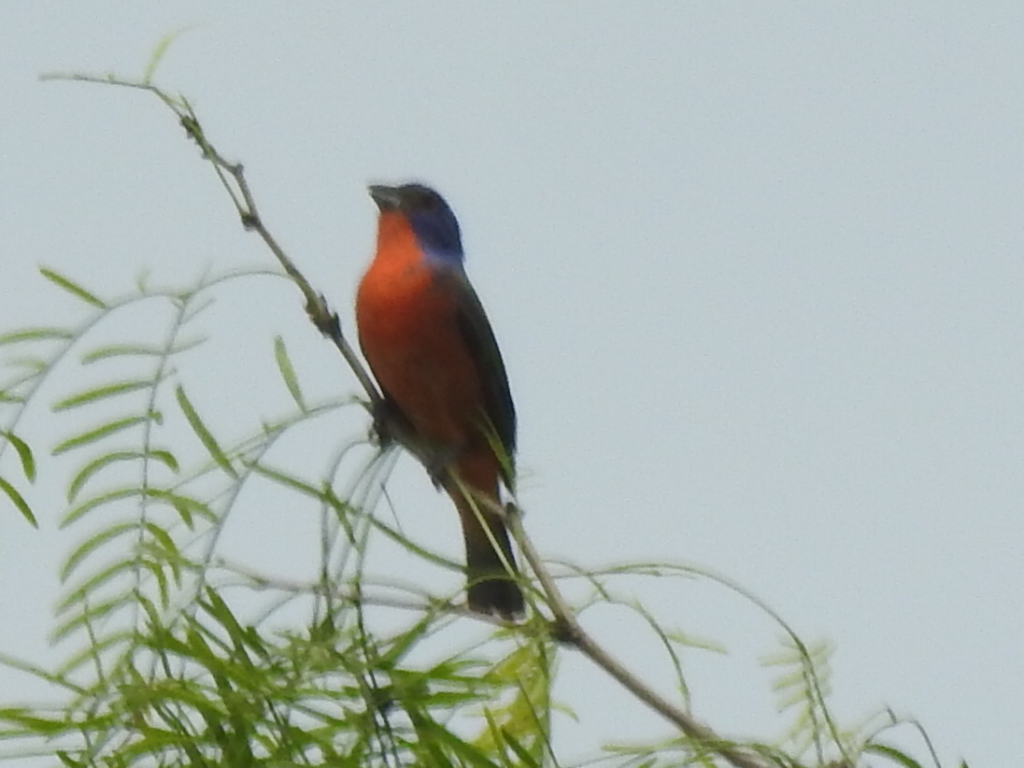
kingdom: Animalia
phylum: Chordata
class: Aves
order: Passeriformes
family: Cardinalidae
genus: Passerina
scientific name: Passerina ciris
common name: Painted bunting
